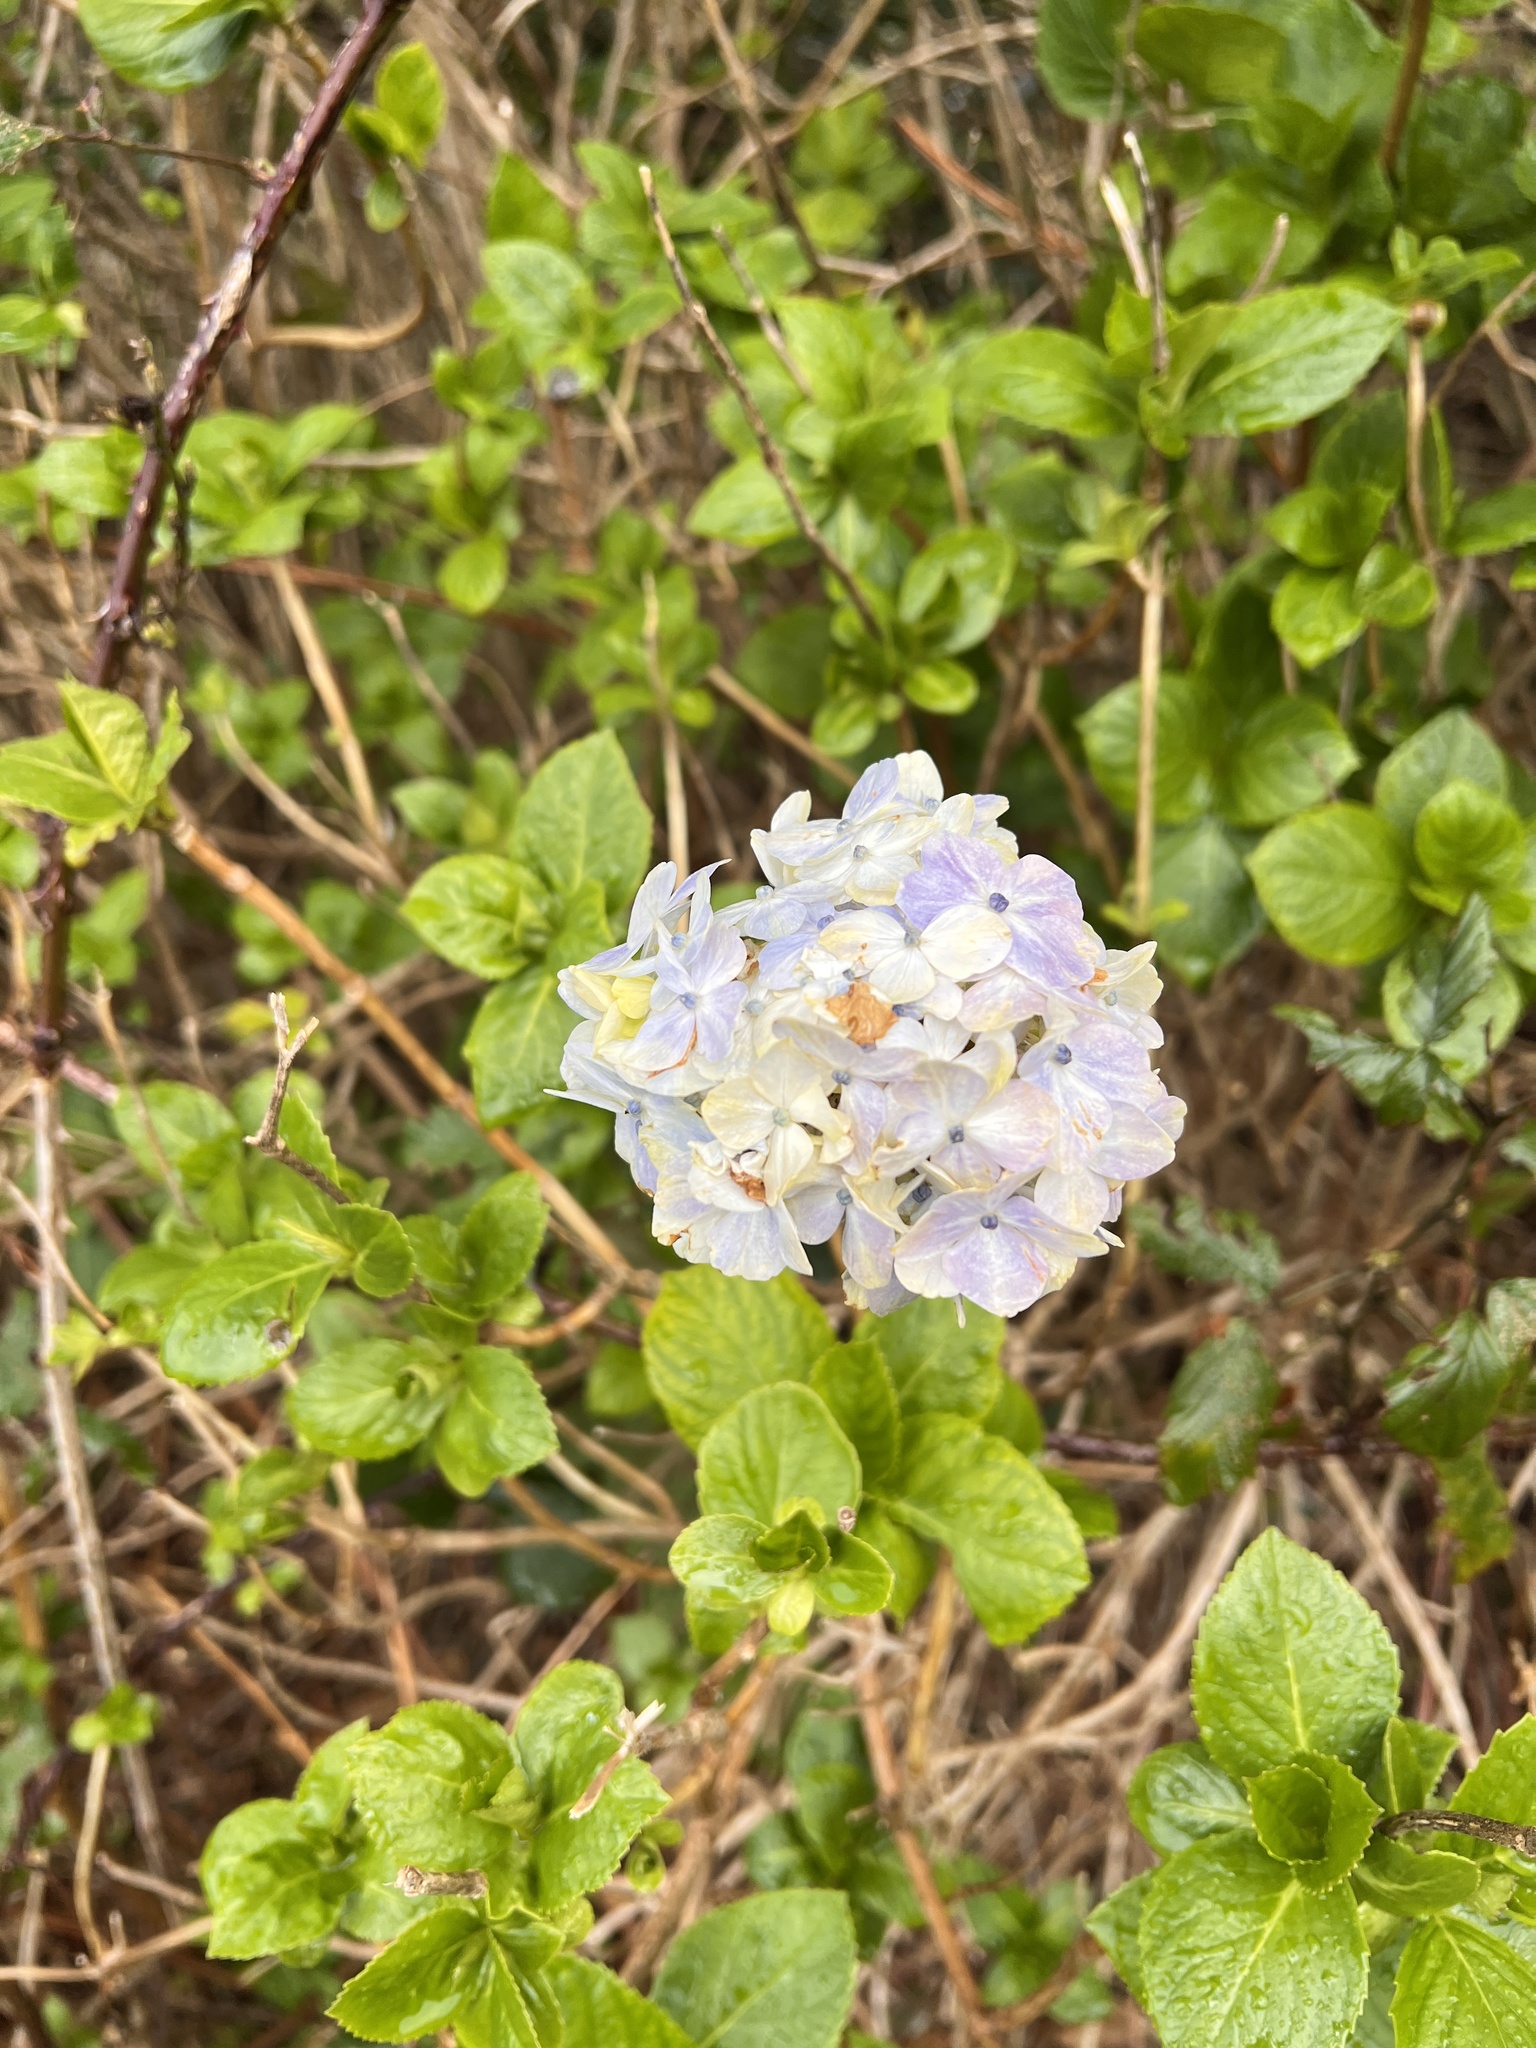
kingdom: Plantae
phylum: Tracheophyta
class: Magnoliopsida
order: Cornales
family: Hydrangeaceae
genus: Hydrangea
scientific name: Hydrangea macrophylla
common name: Hydrangea
